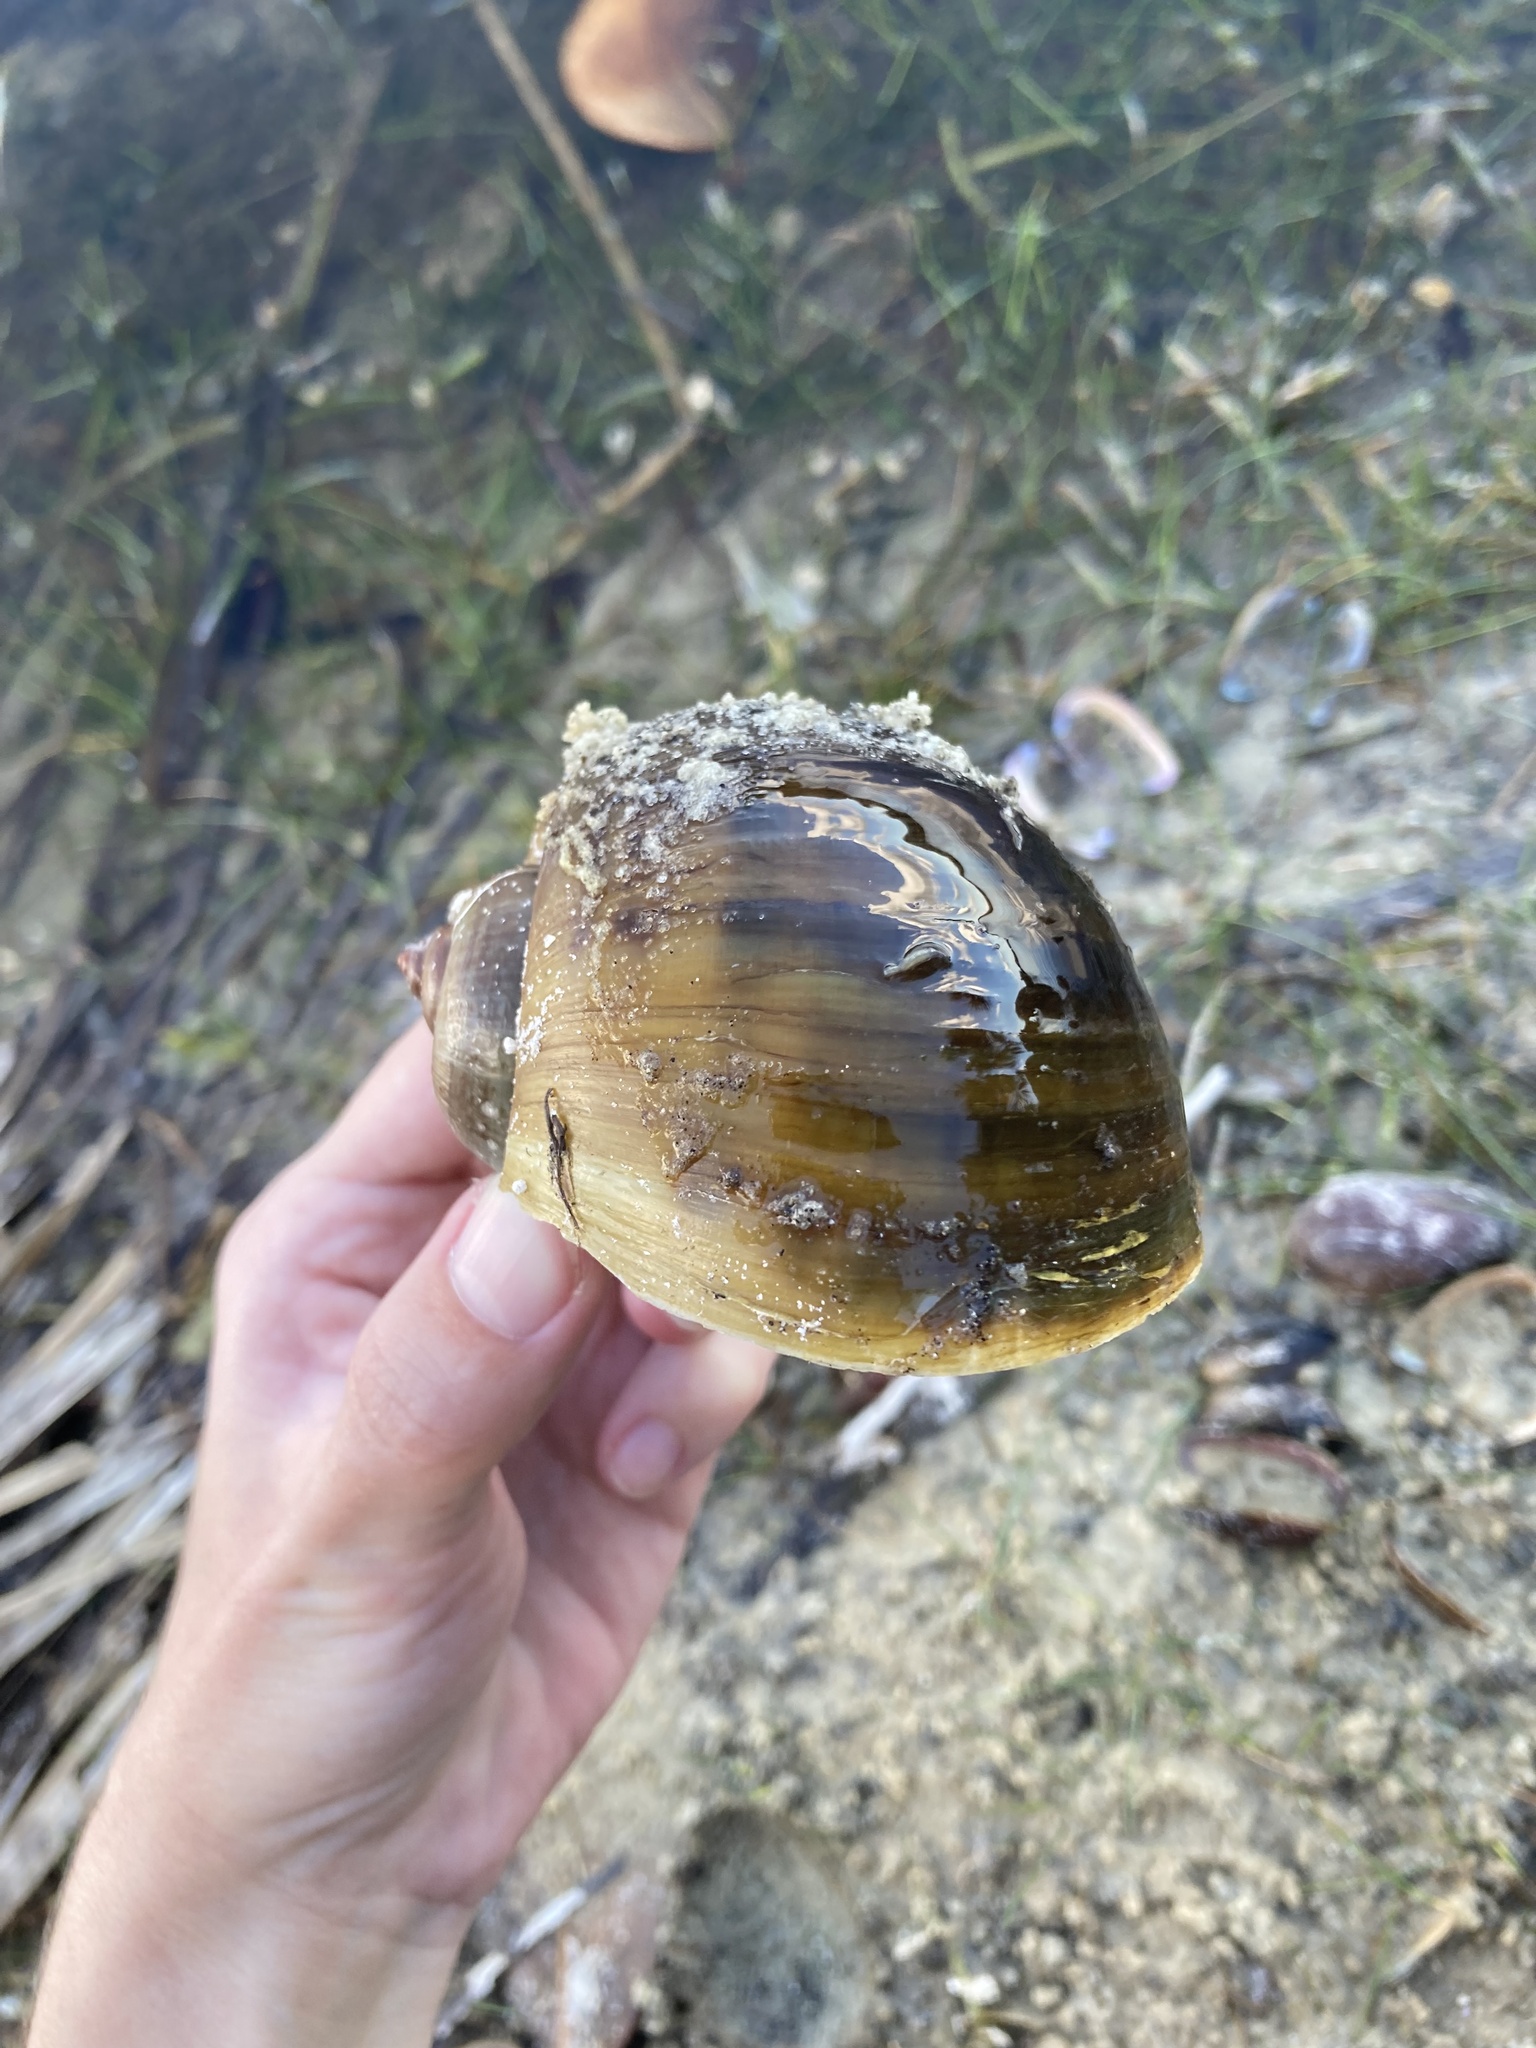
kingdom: Animalia
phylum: Mollusca
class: Gastropoda
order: Architaenioglossa
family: Ampullariidae
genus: Pomacea
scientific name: Pomacea maculata
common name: Giant applesnail
